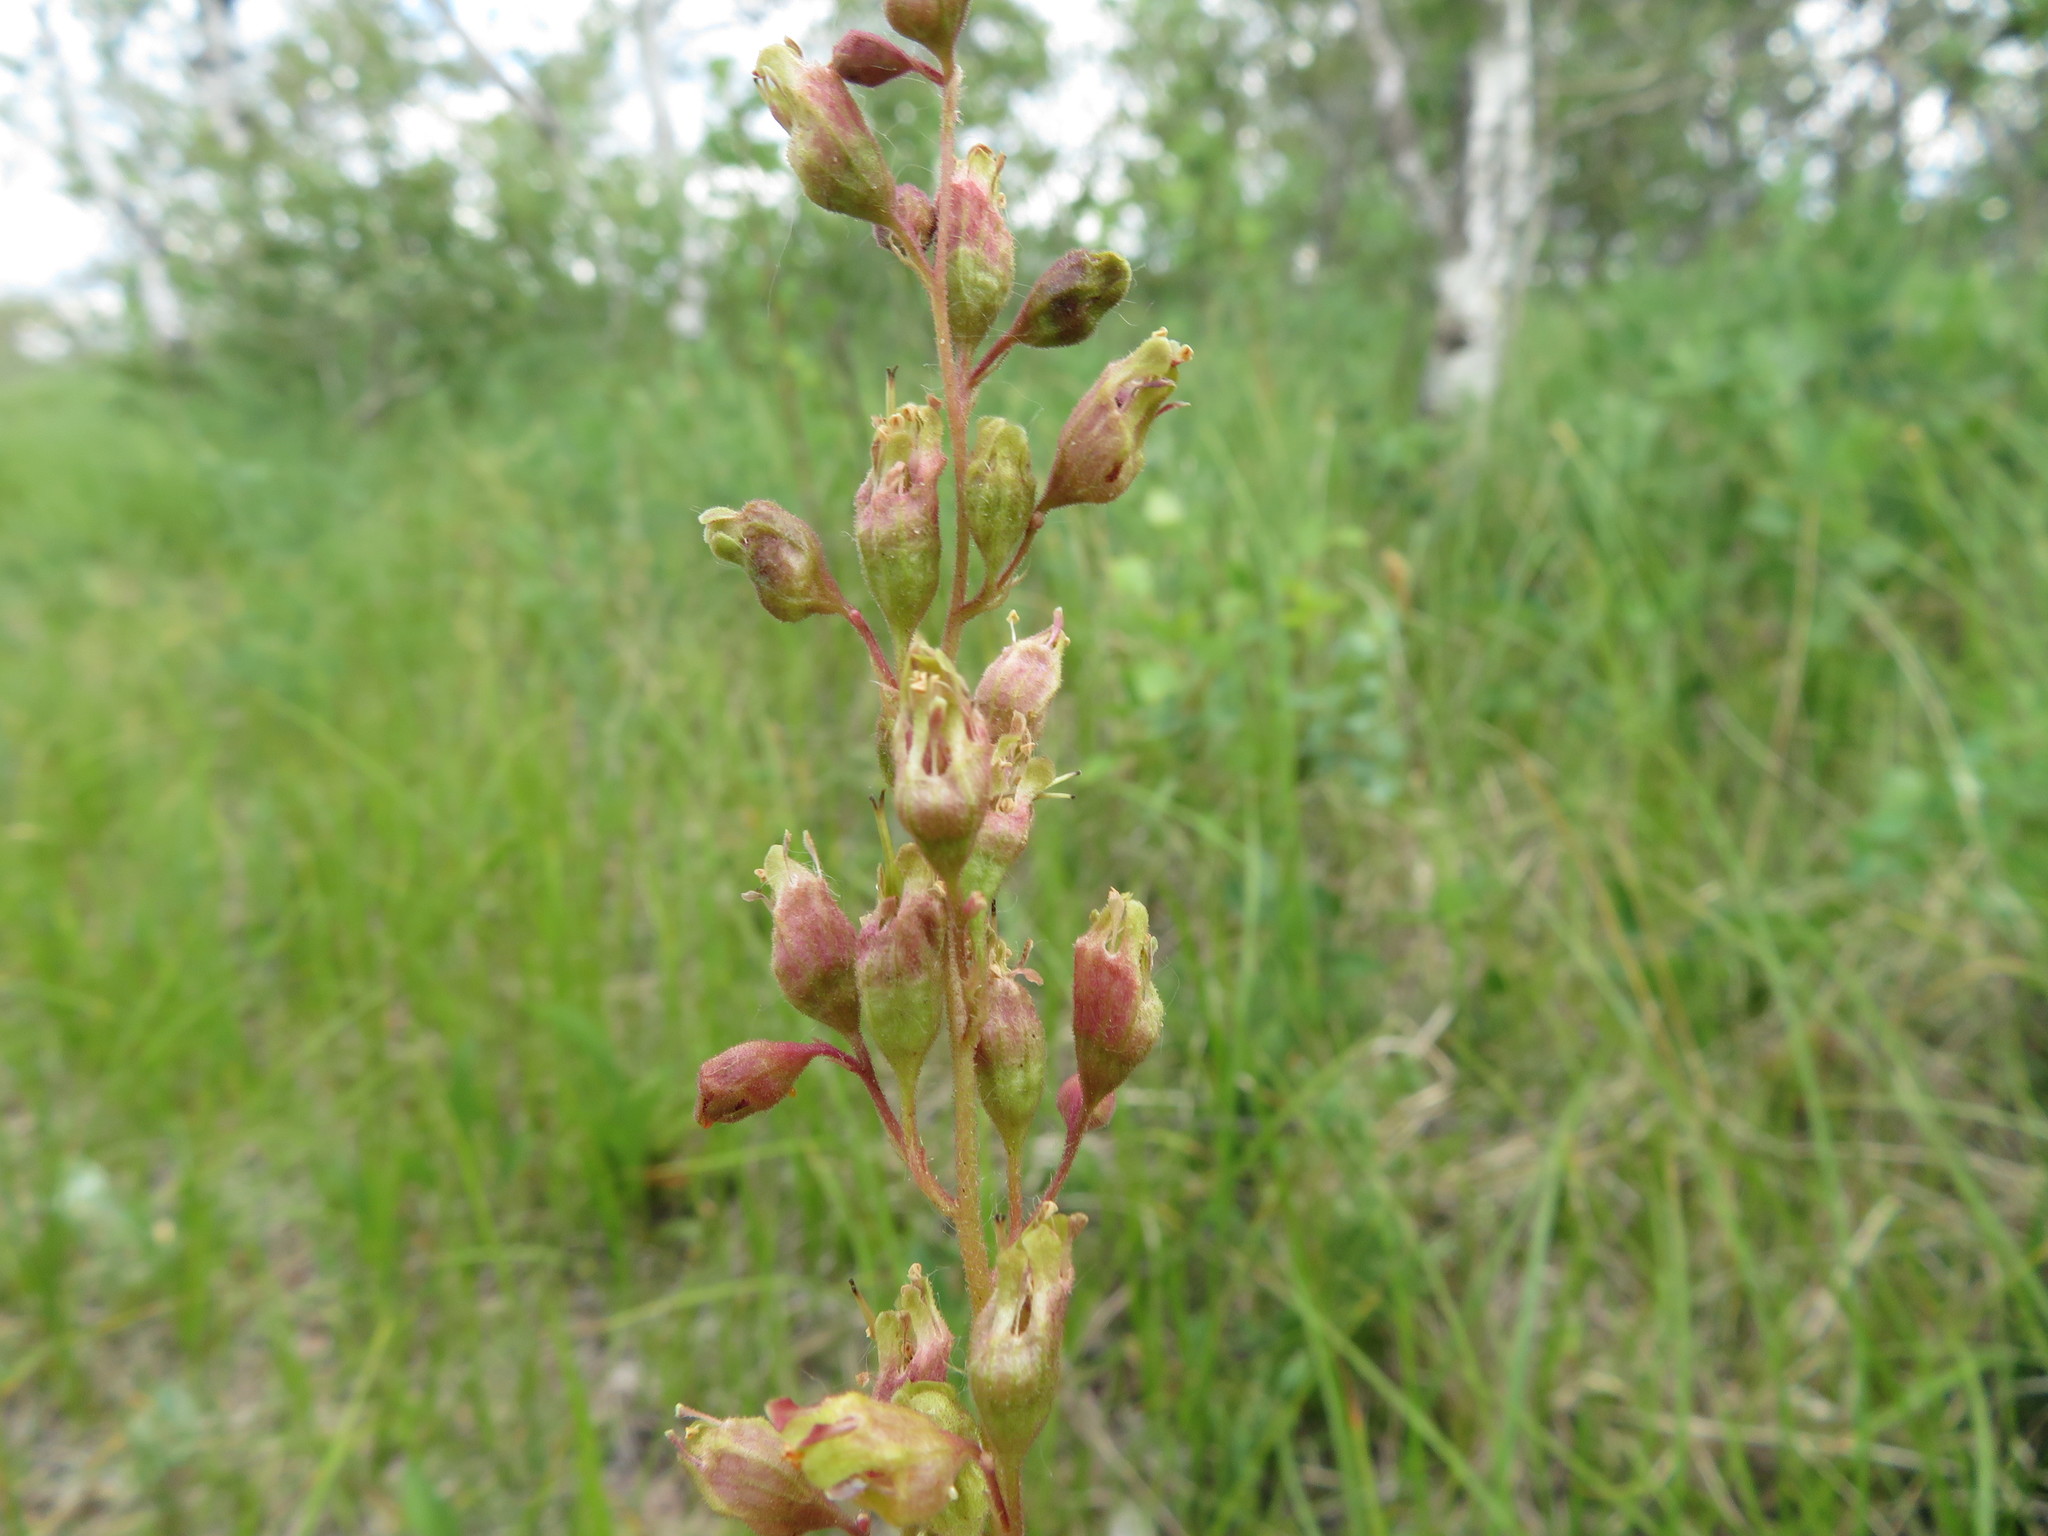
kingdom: Plantae
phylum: Tracheophyta
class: Magnoliopsida
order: Saxifragales
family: Saxifragaceae
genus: Heuchera
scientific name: Heuchera richardsonii
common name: Richardson's alumroot
